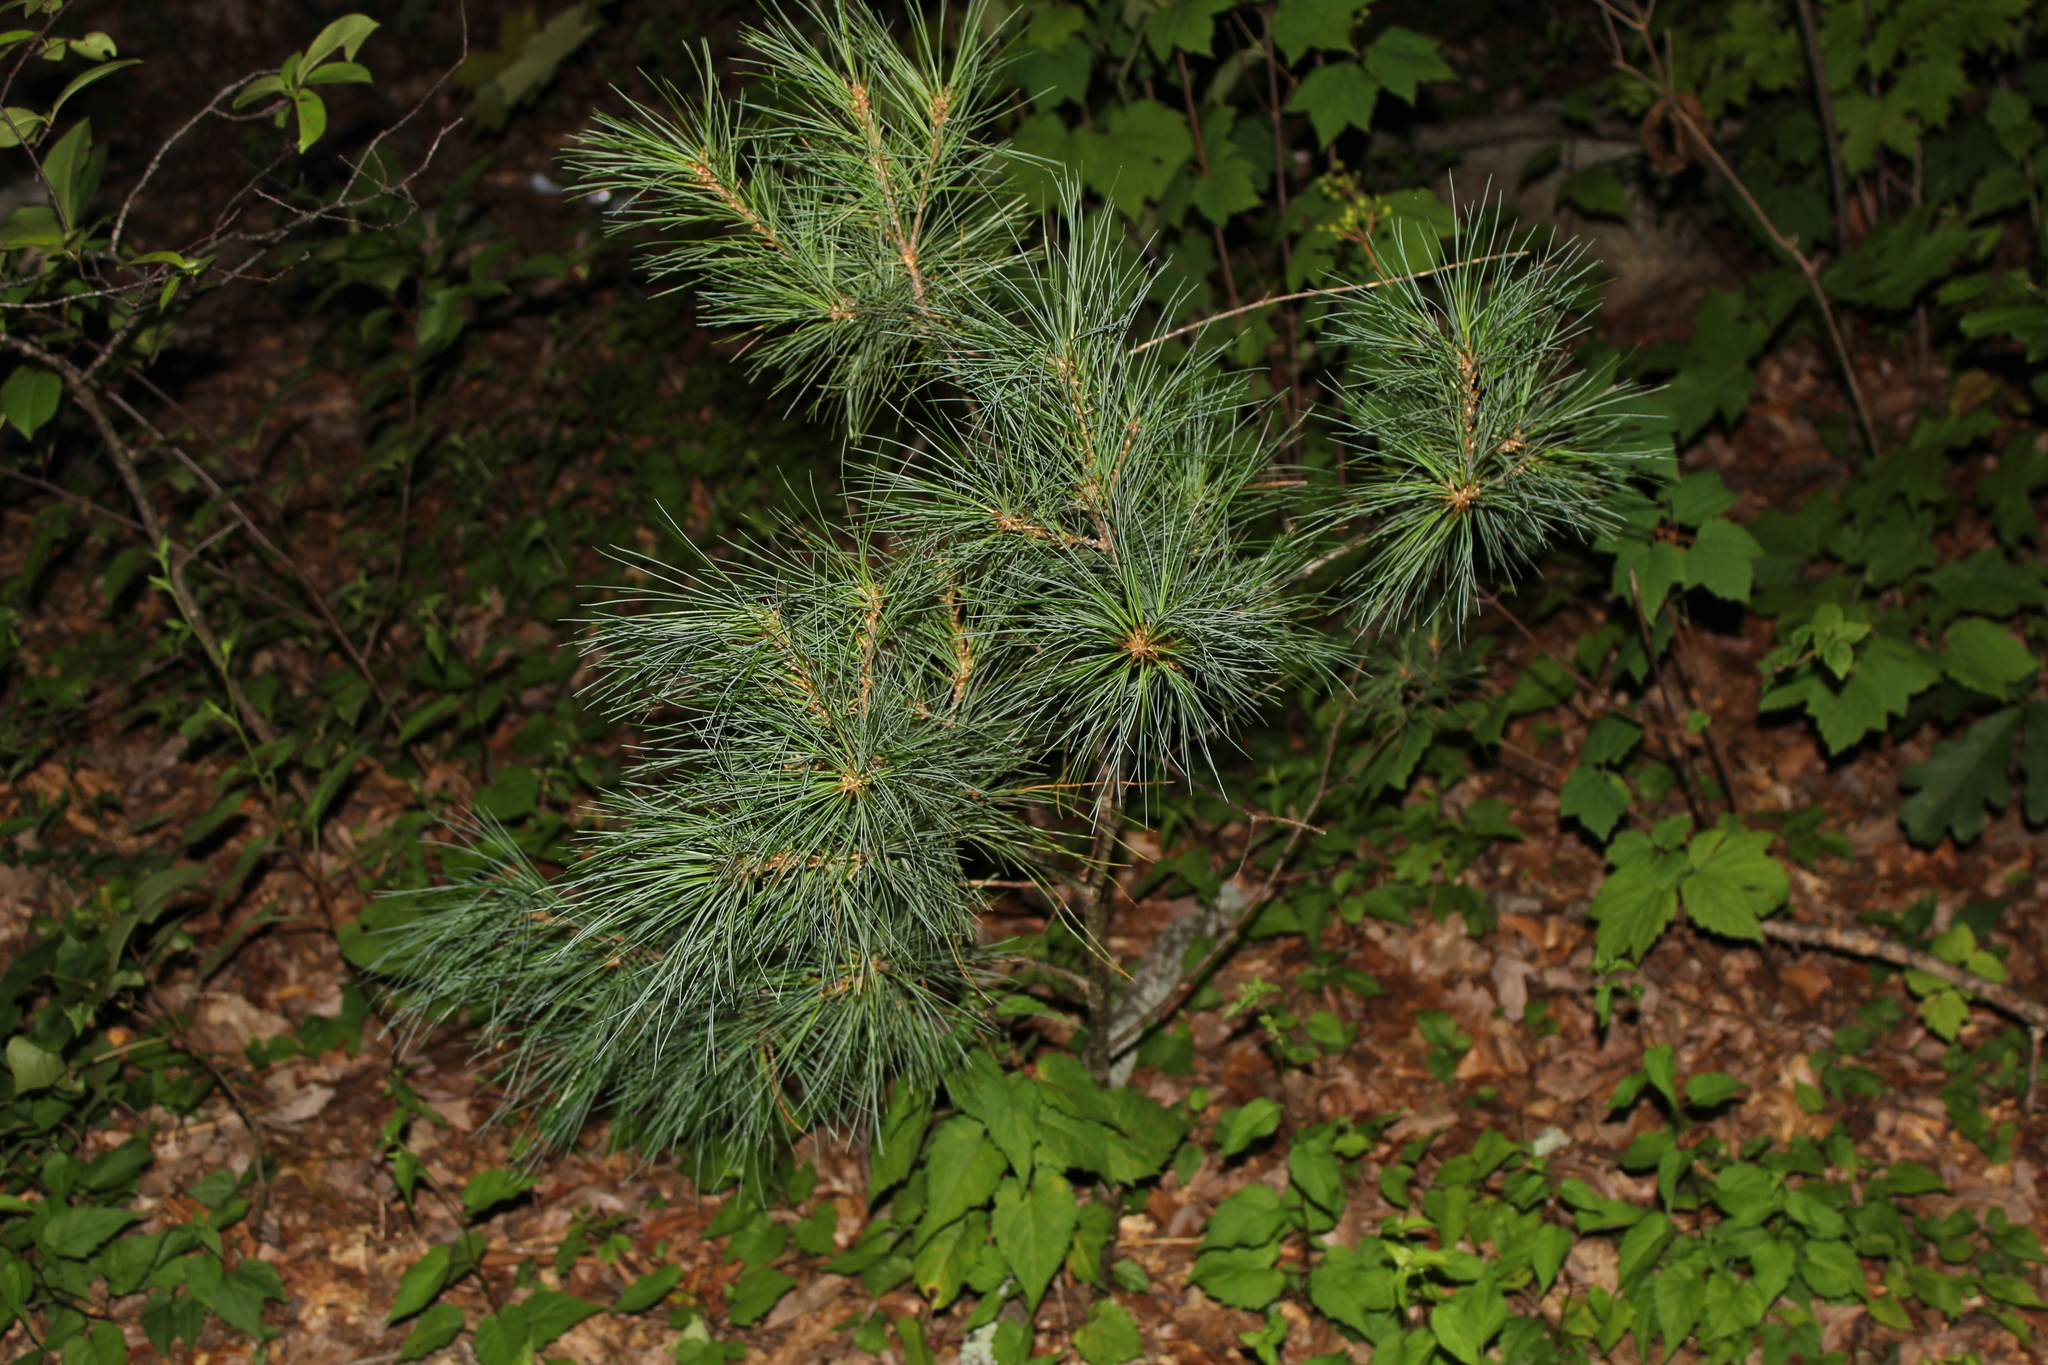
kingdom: Plantae
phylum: Tracheophyta
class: Pinopsida
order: Pinales
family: Pinaceae
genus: Pinus
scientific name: Pinus strobus
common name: Weymouth pine
